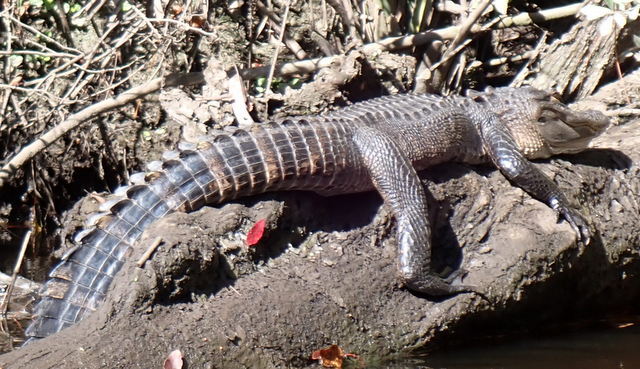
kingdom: Animalia
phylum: Chordata
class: Crocodylia
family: Alligatoridae
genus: Alligator
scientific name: Alligator mississippiensis
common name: American alligator
